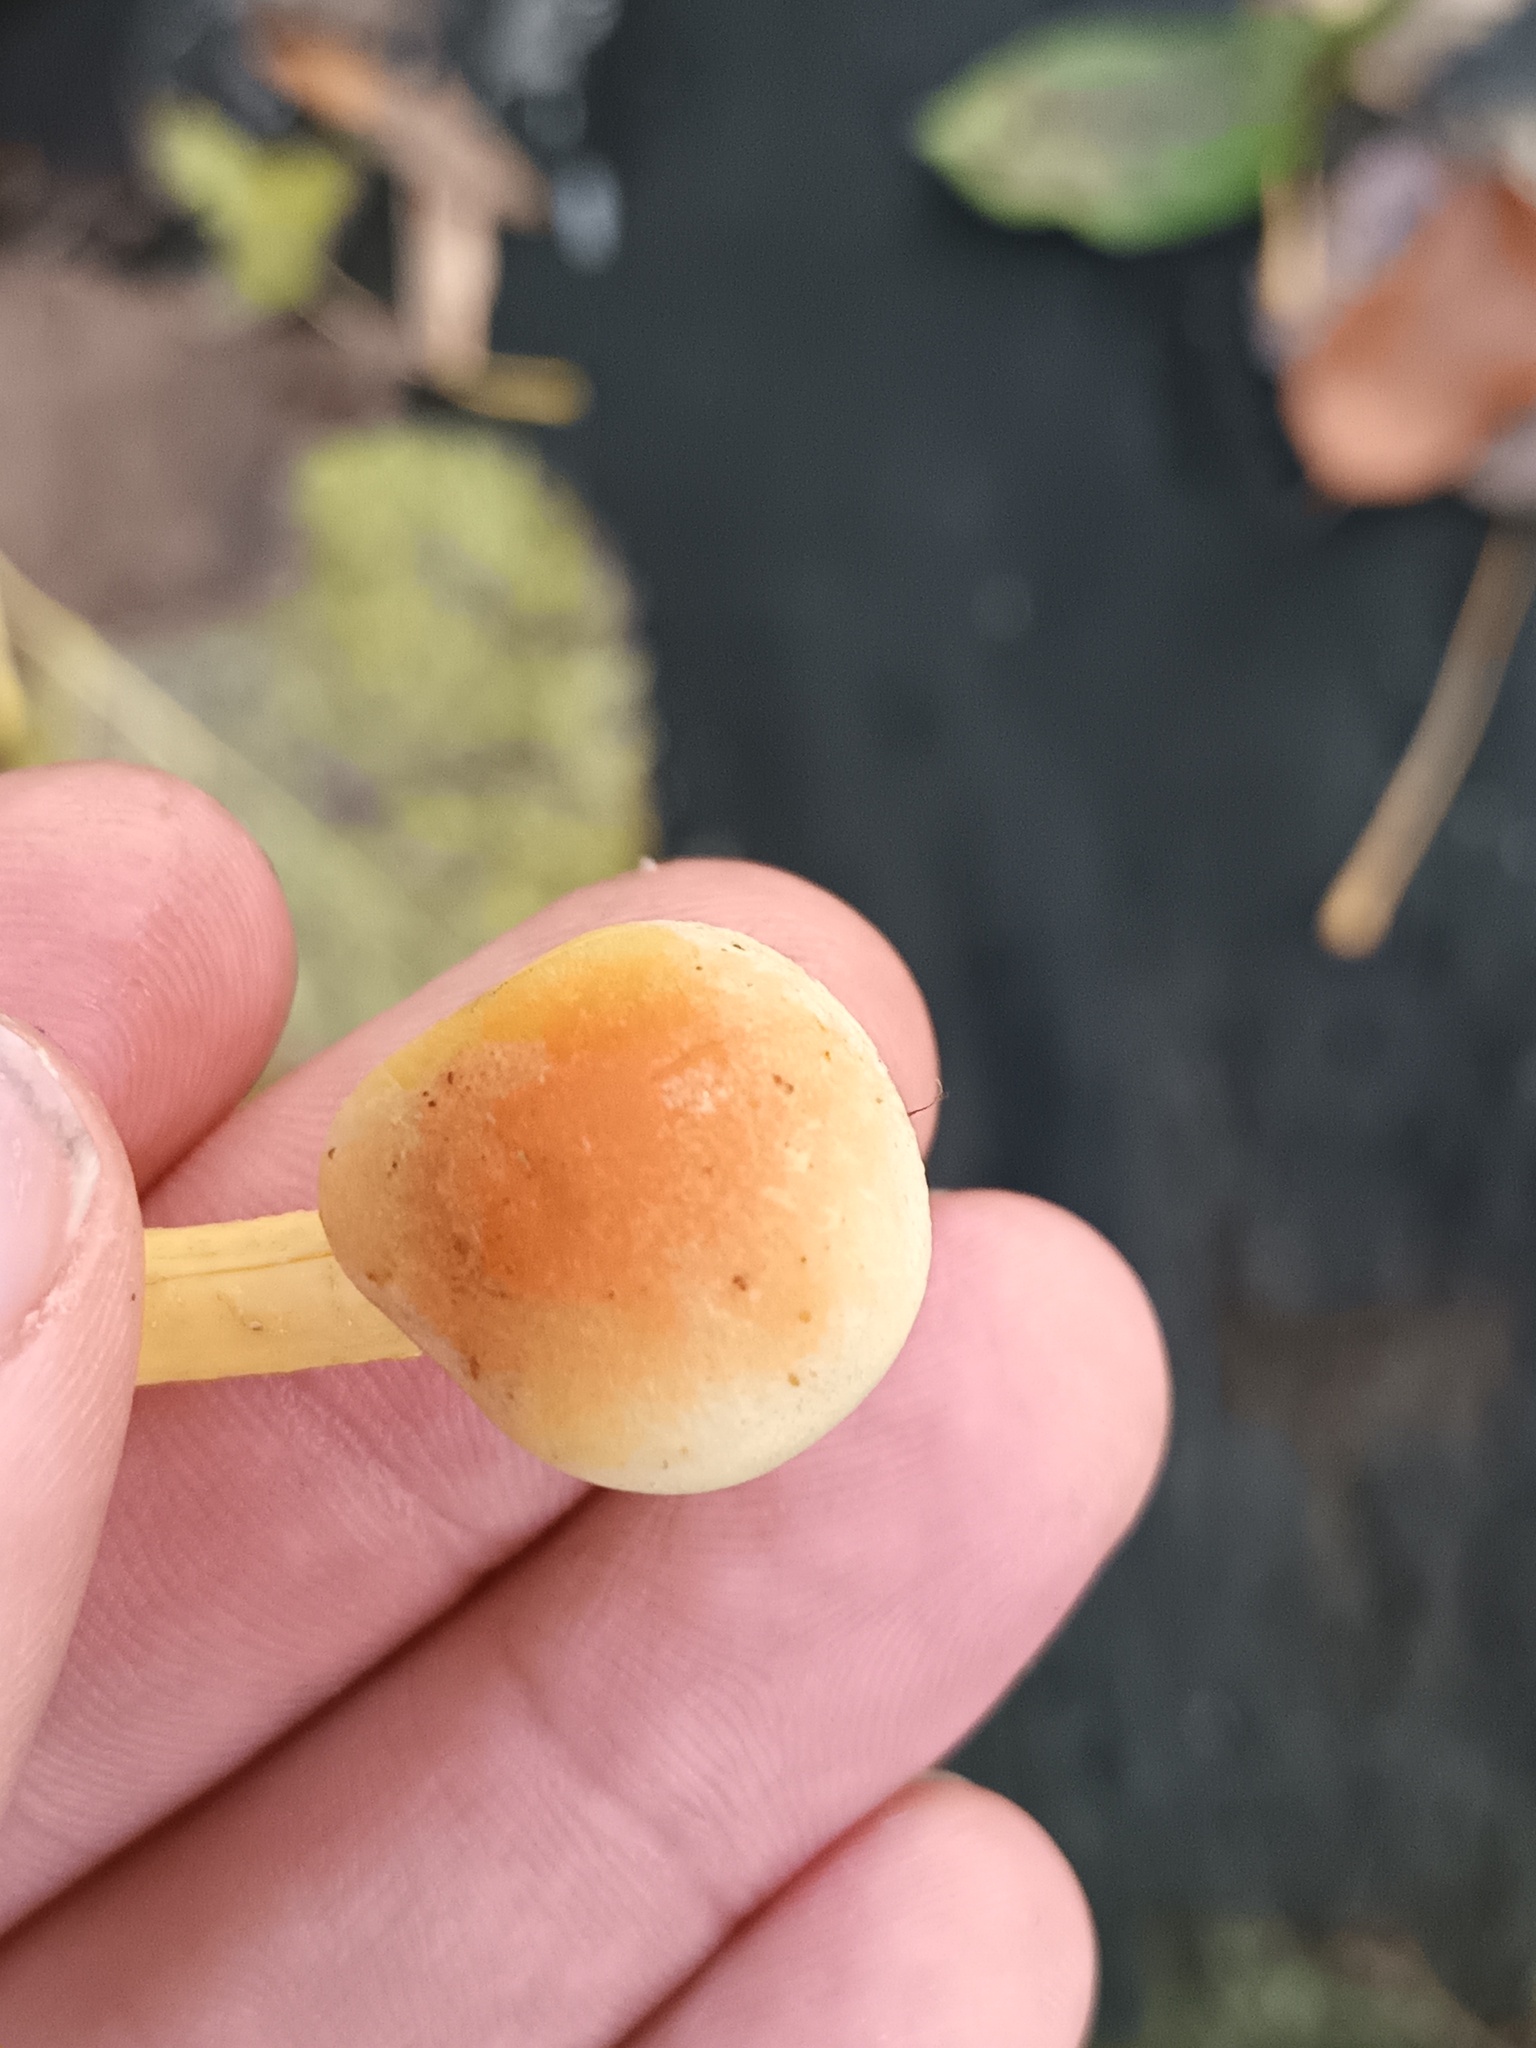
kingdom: Fungi
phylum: Basidiomycota
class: Agaricomycetes
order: Agaricales
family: Strophariaceae
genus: Hypholoma
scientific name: Hypholoma fasciculare
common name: Sulphur tuft
